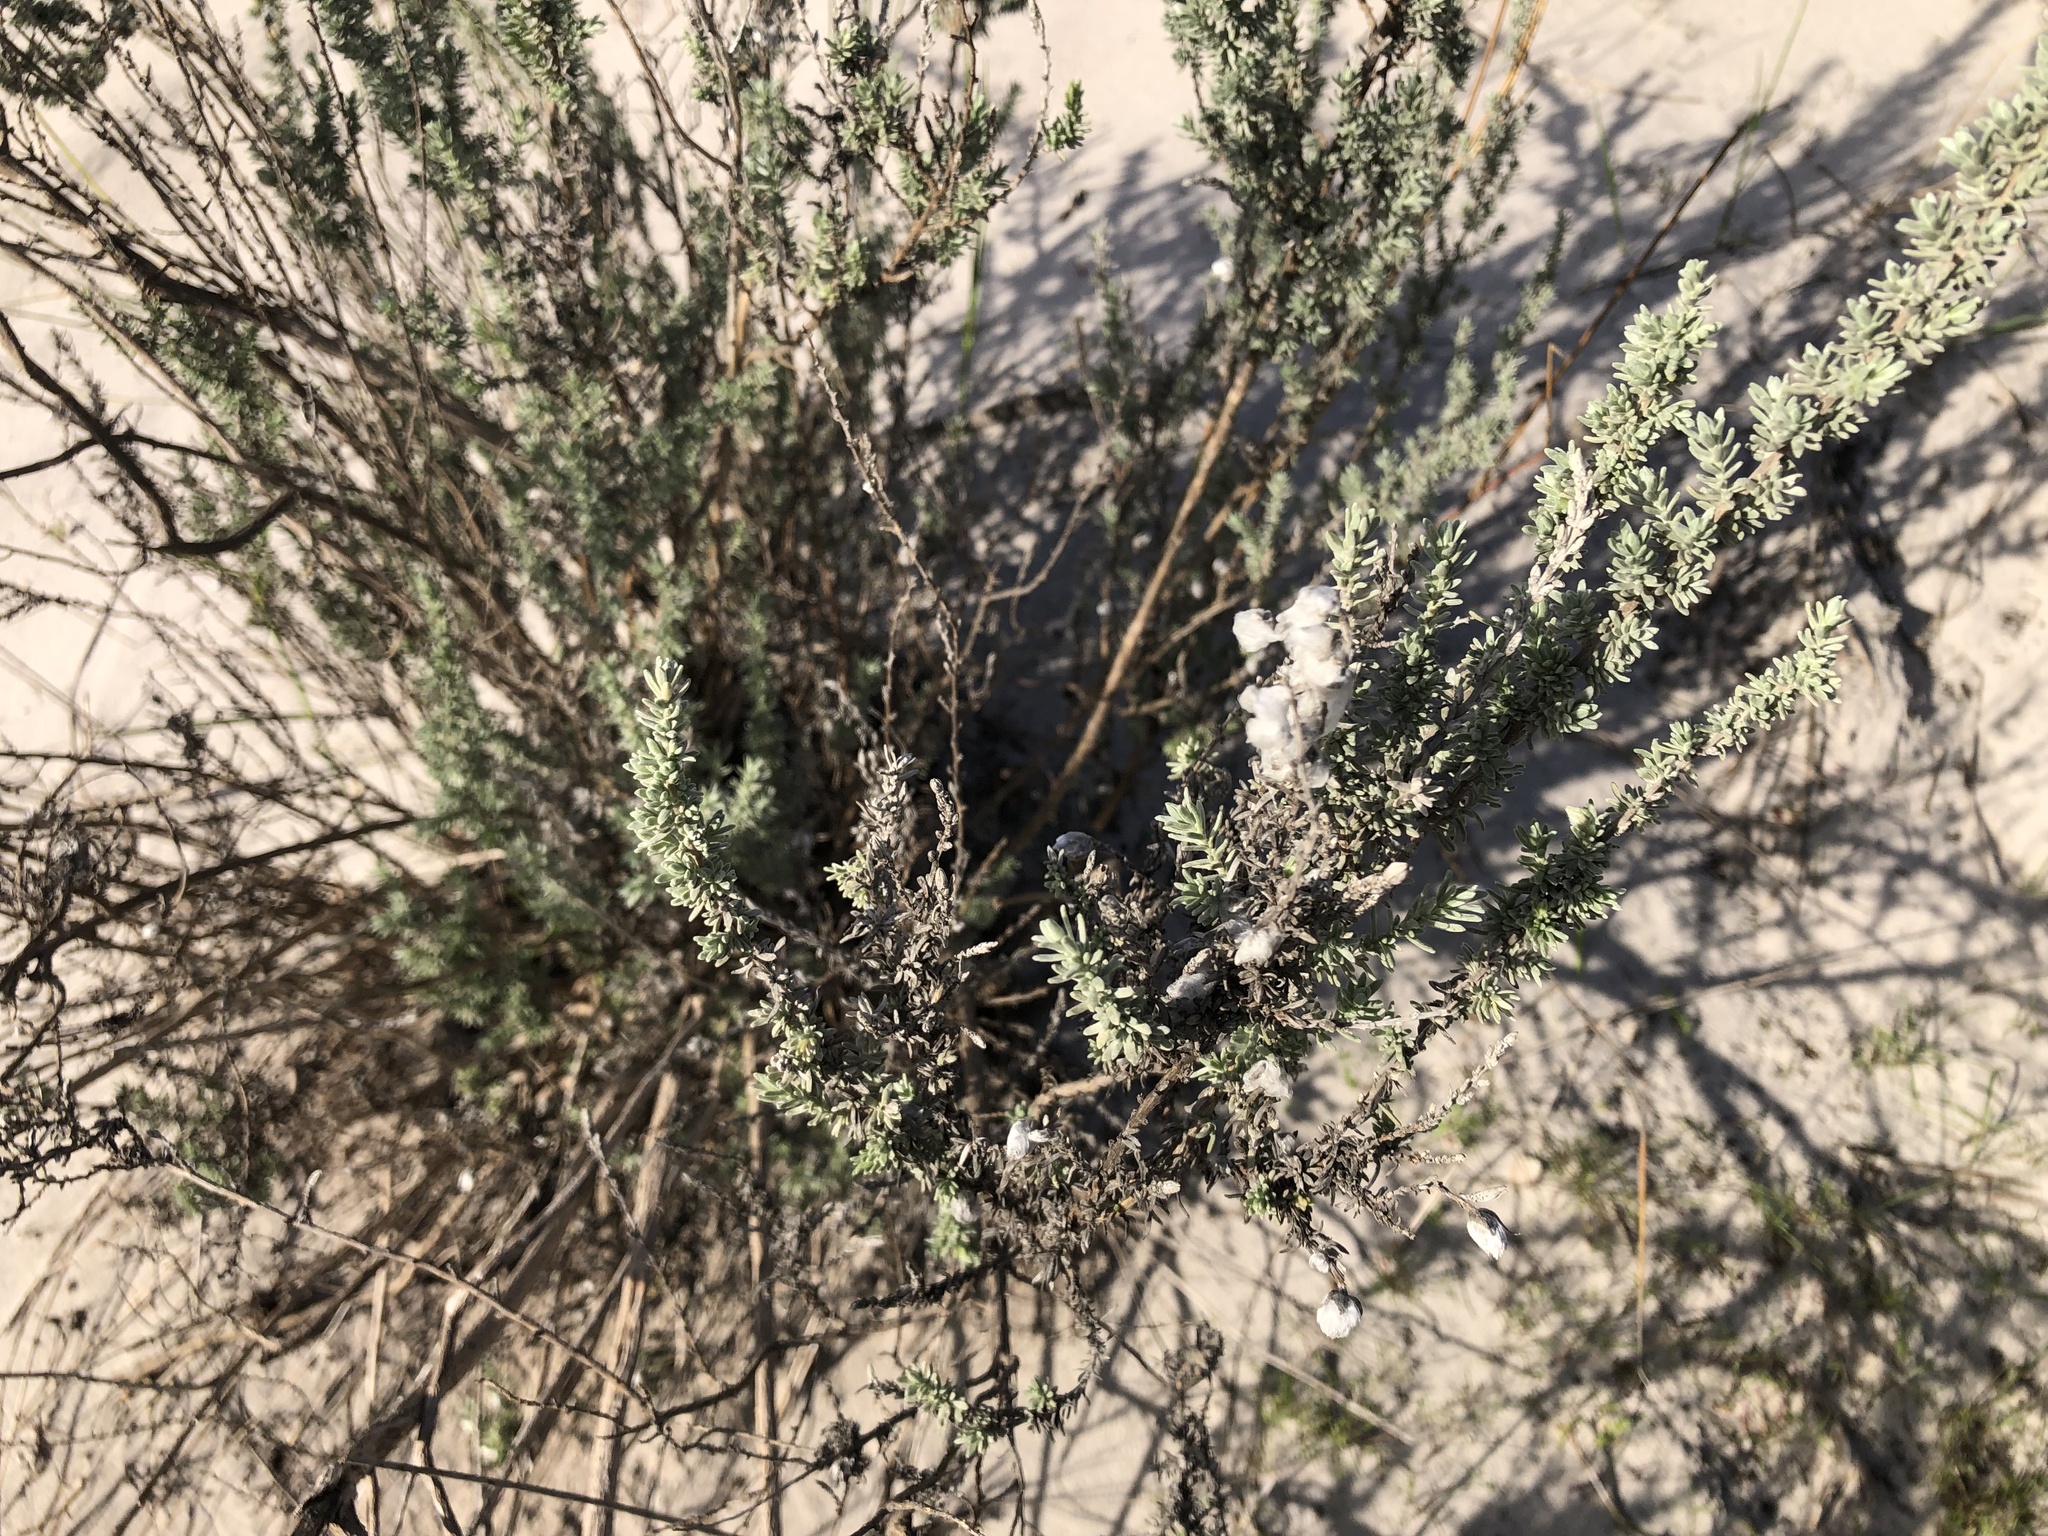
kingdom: Plantae
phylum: Tracheophyta
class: Magnoliopsida
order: Asterales
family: Asteraceae
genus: Eriocephalus
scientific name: Eriocephalus racemosus
